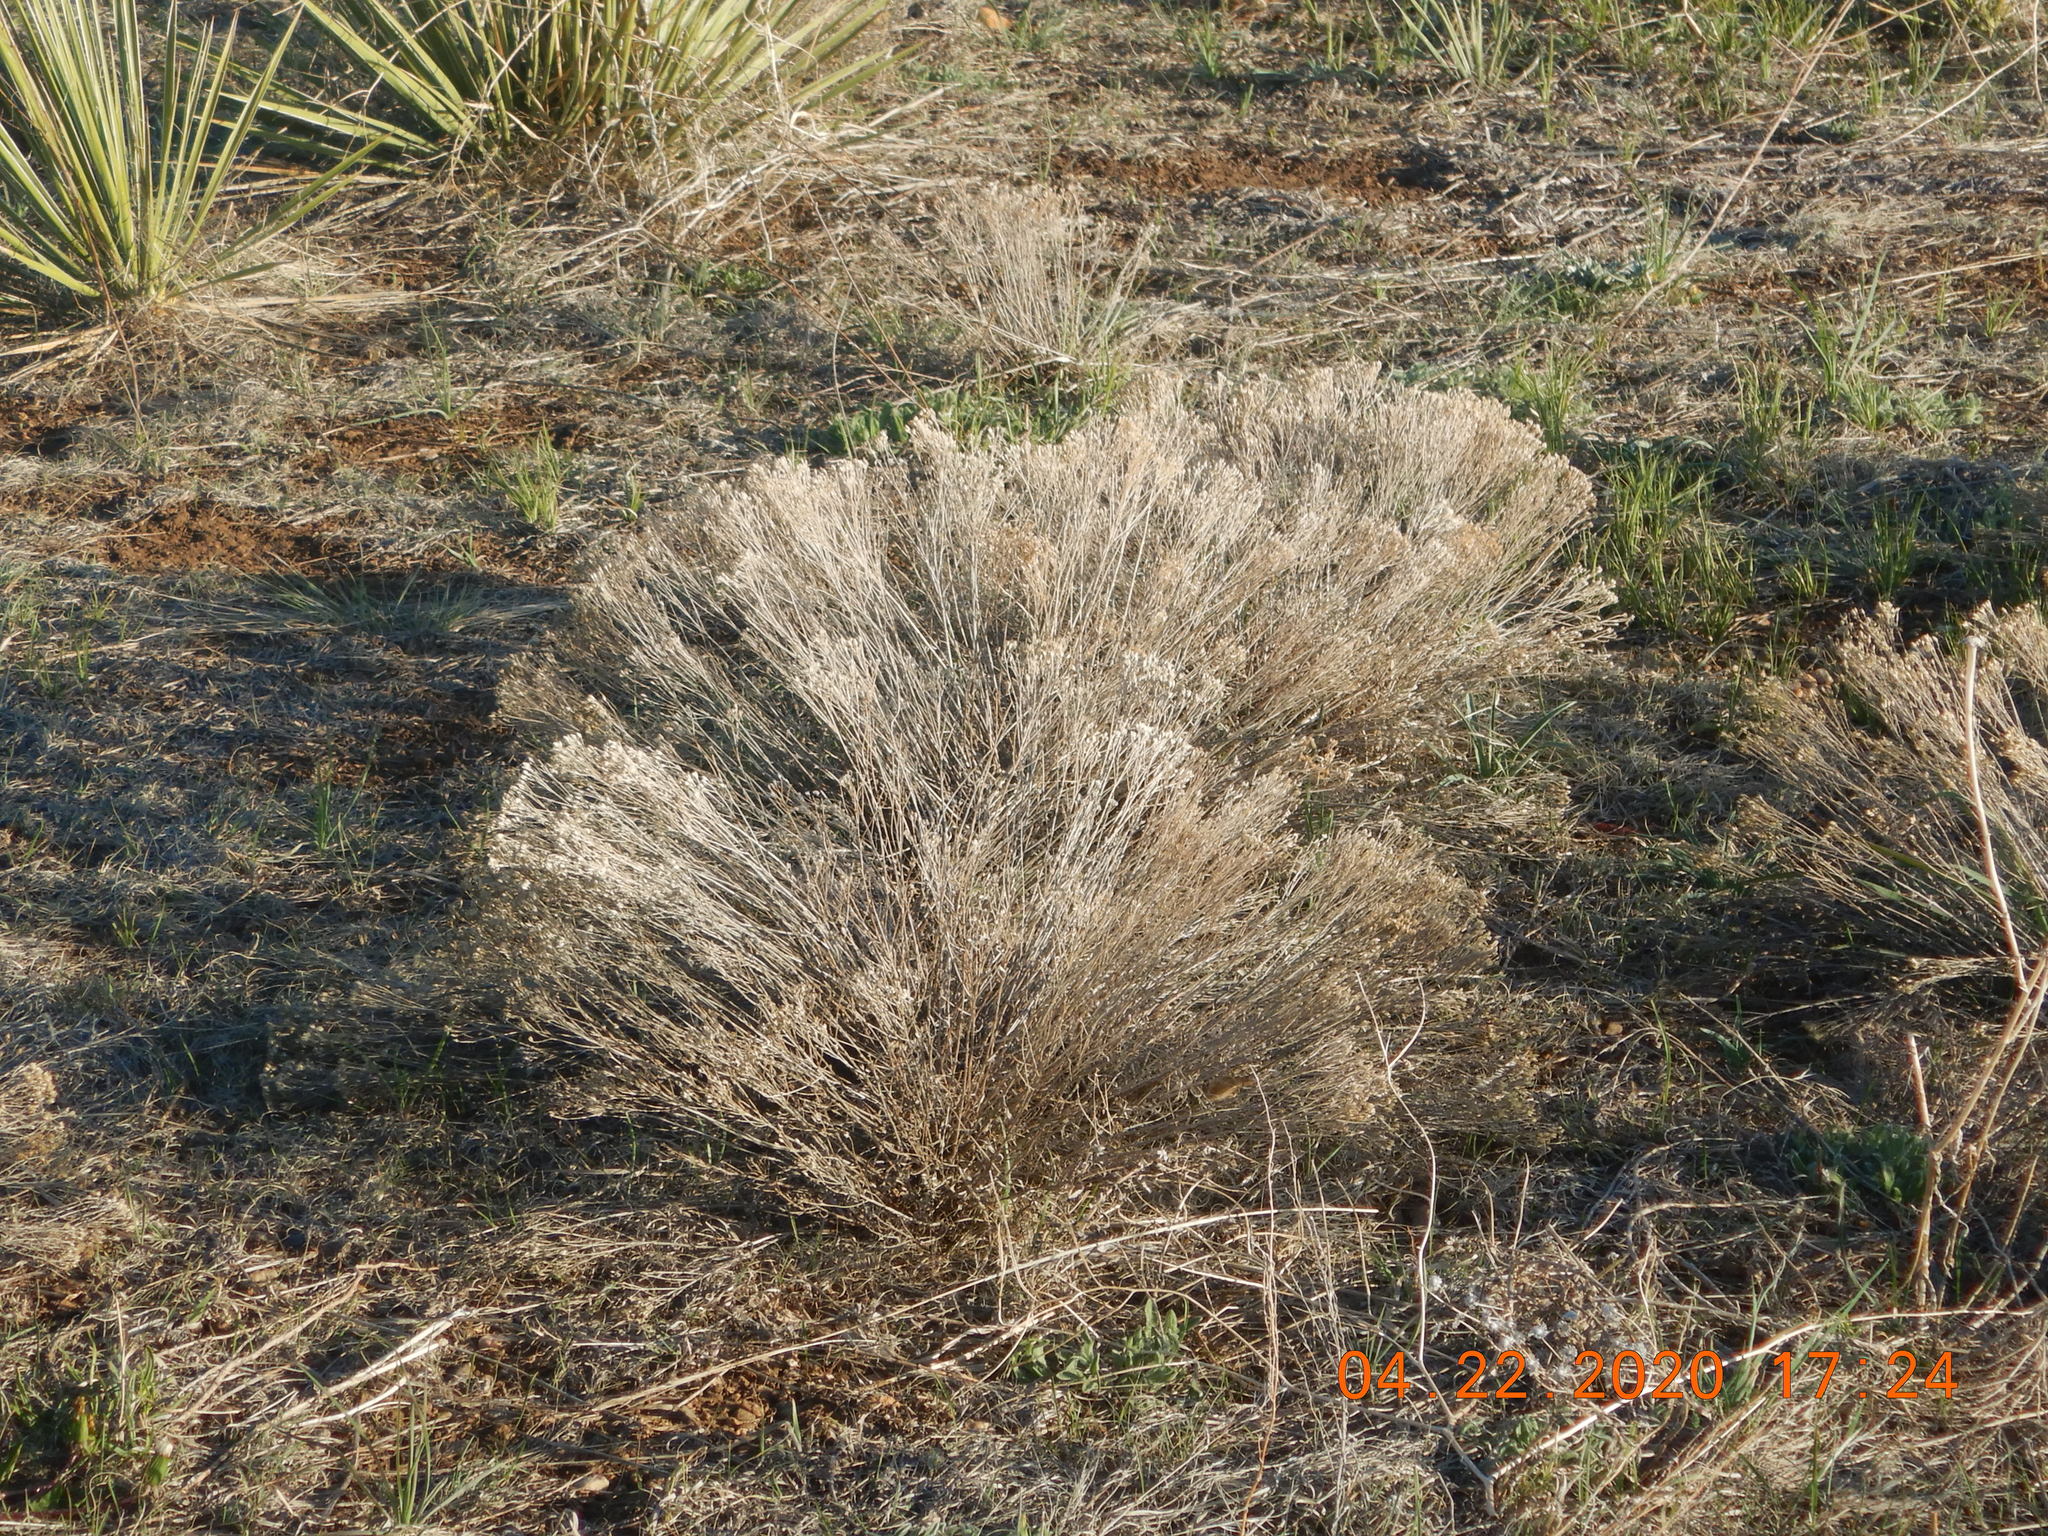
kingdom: Plantae
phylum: Tracheophyta
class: Magnoliopsida
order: Asterales
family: Asteraceae
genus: Ericameria
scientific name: Ericameria nauseosa
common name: Rubber rabbitbrush
